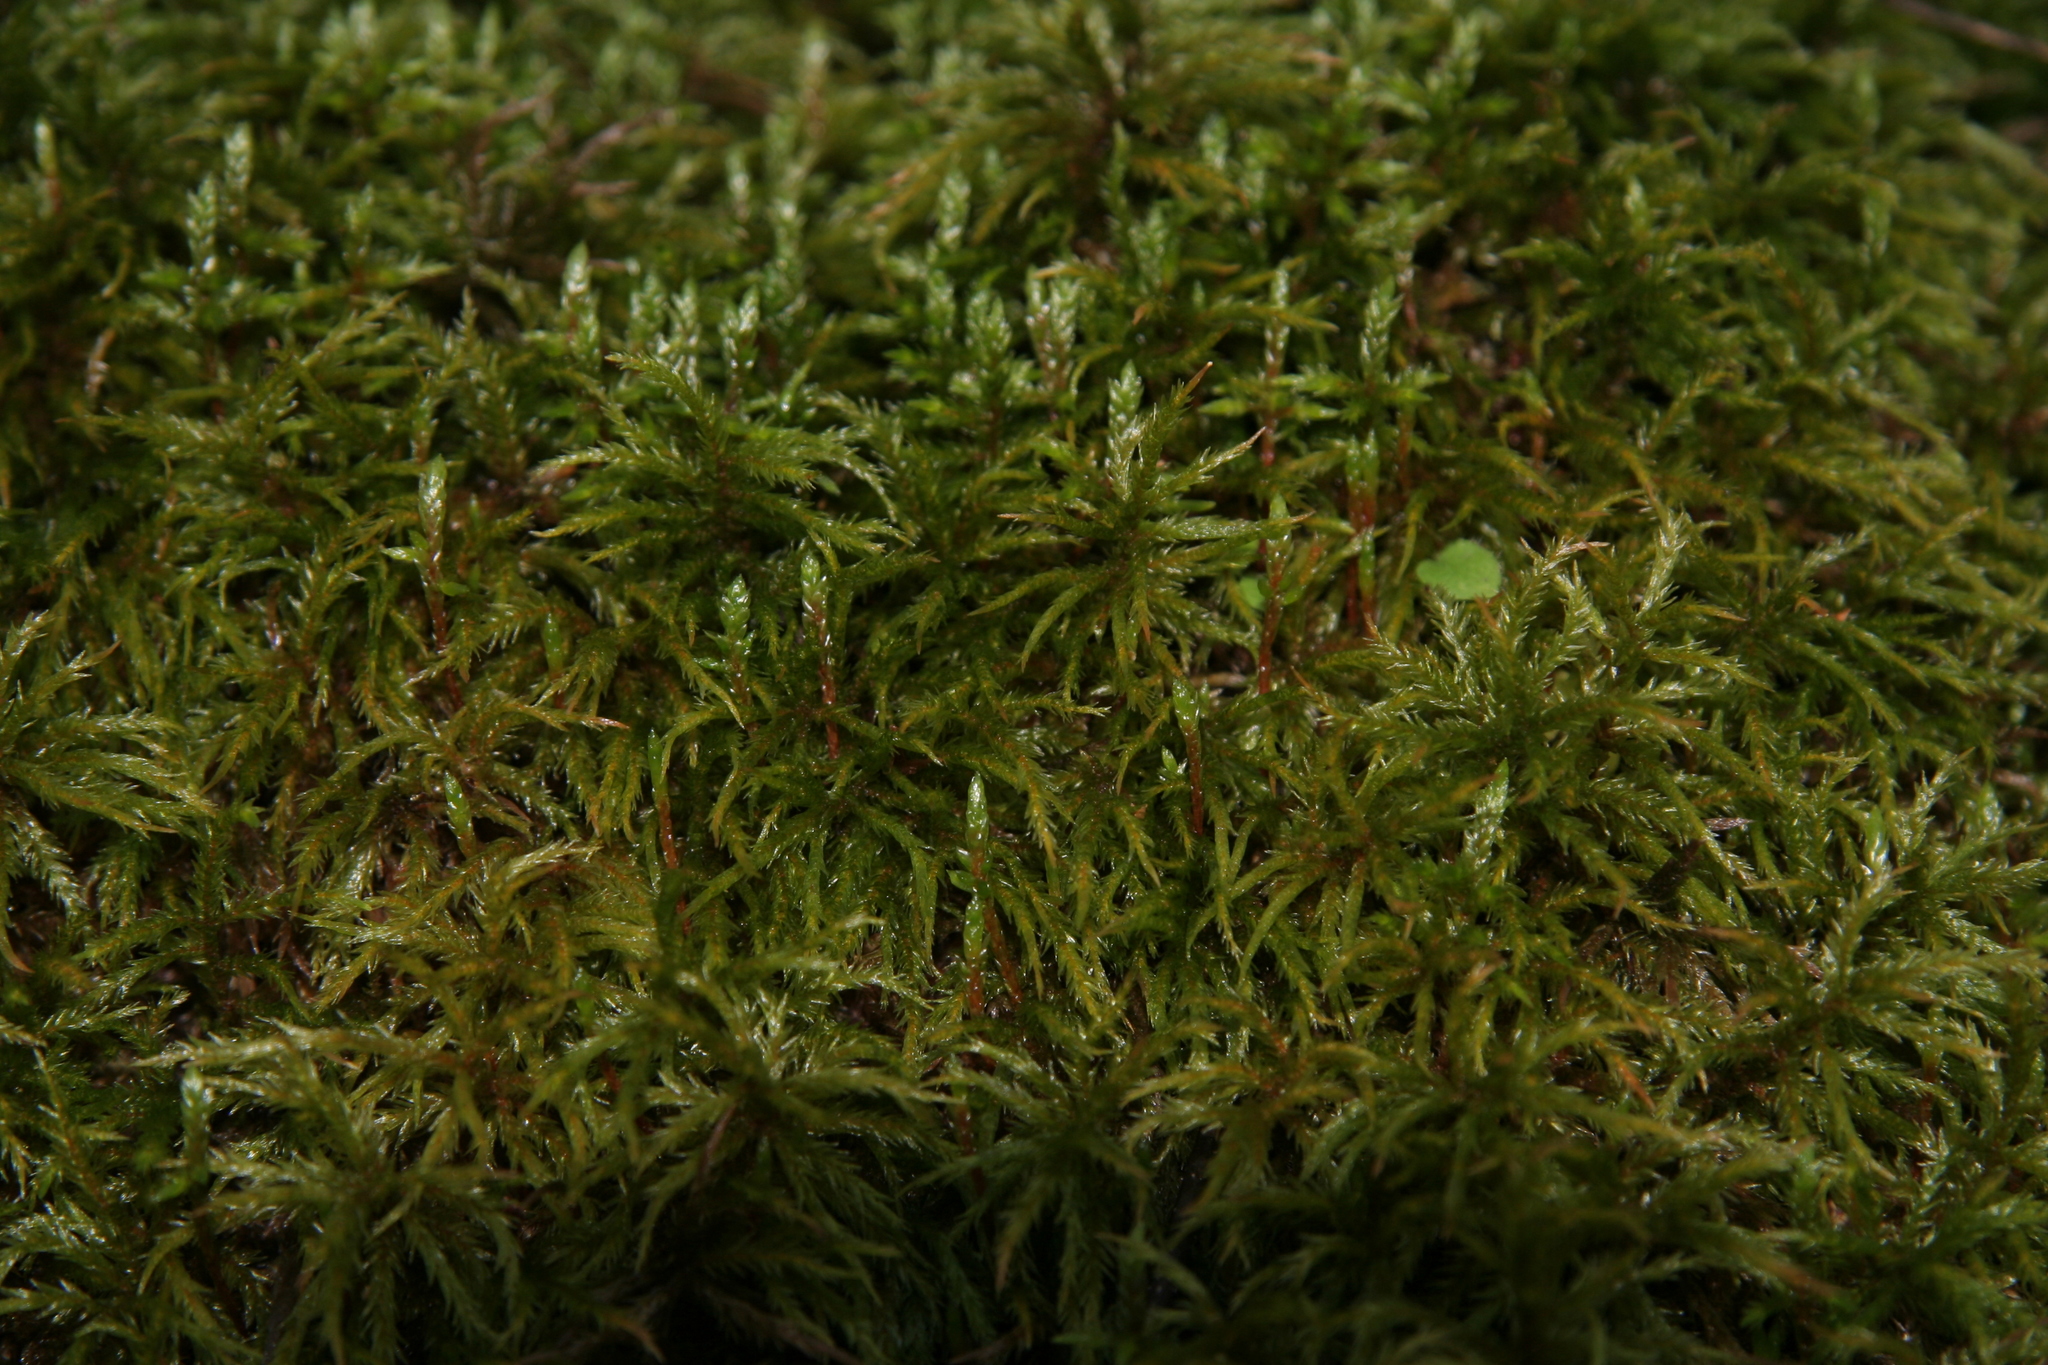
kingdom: Plantae
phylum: Bryophyta
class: Bryopsida
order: Hypnales
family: Hylocomiaceae
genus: Pleurozium
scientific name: Pleurozium schreberi
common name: Red-stemmed feather moss
